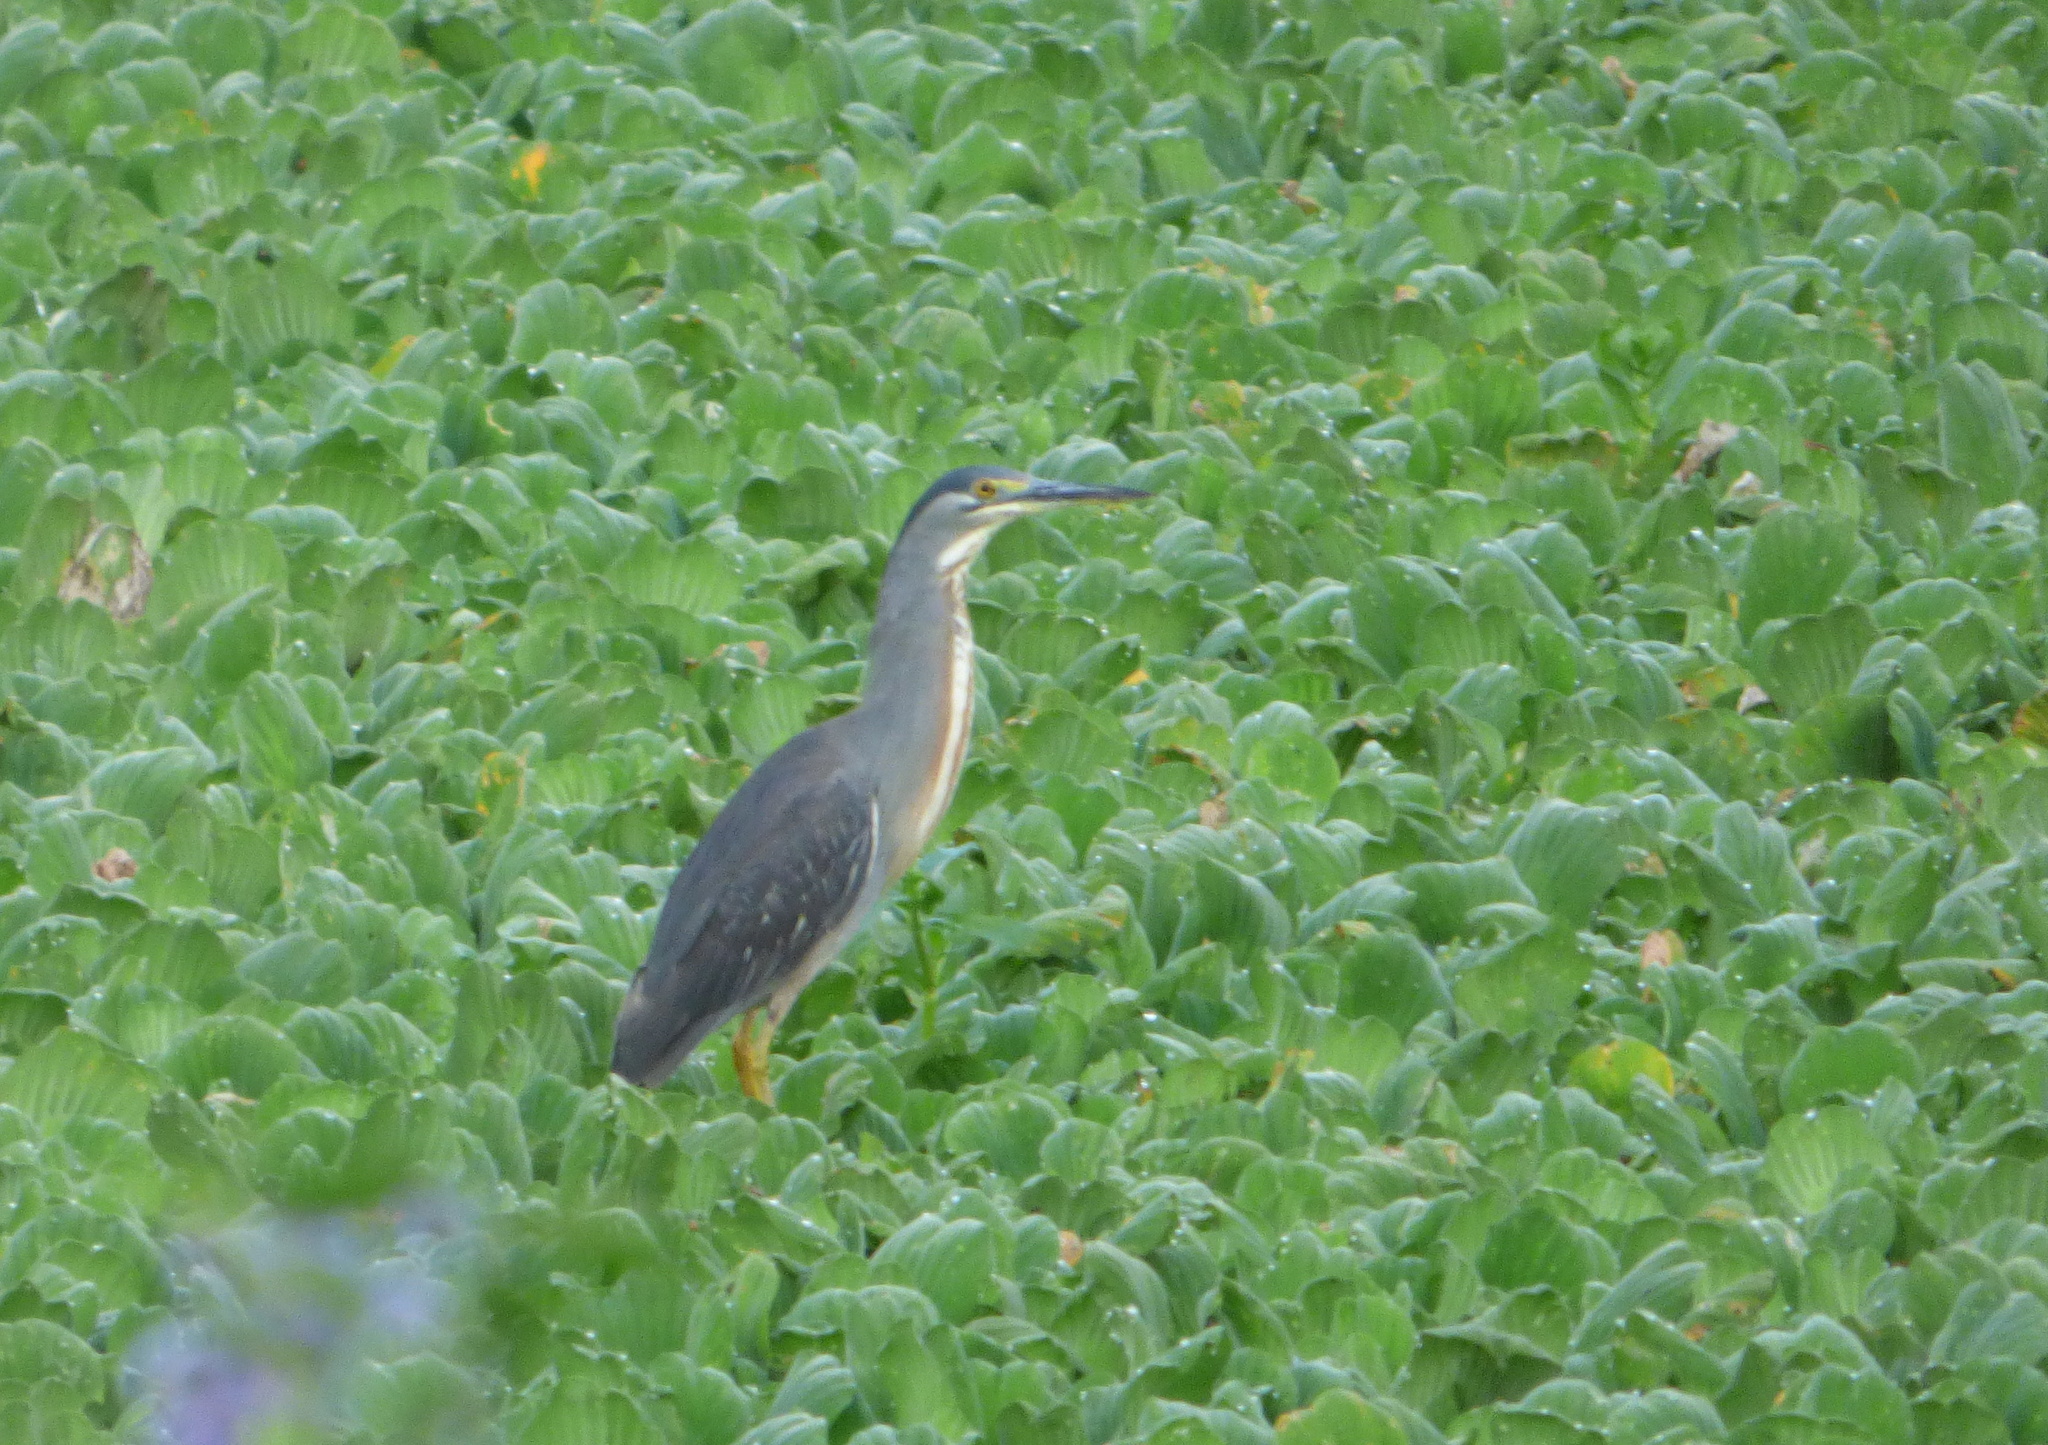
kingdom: Animalia
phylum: Chordata
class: Aves
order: Pelecaniformes
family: Ardeidae
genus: Butorides
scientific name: Butorides striata
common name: Striated heron
